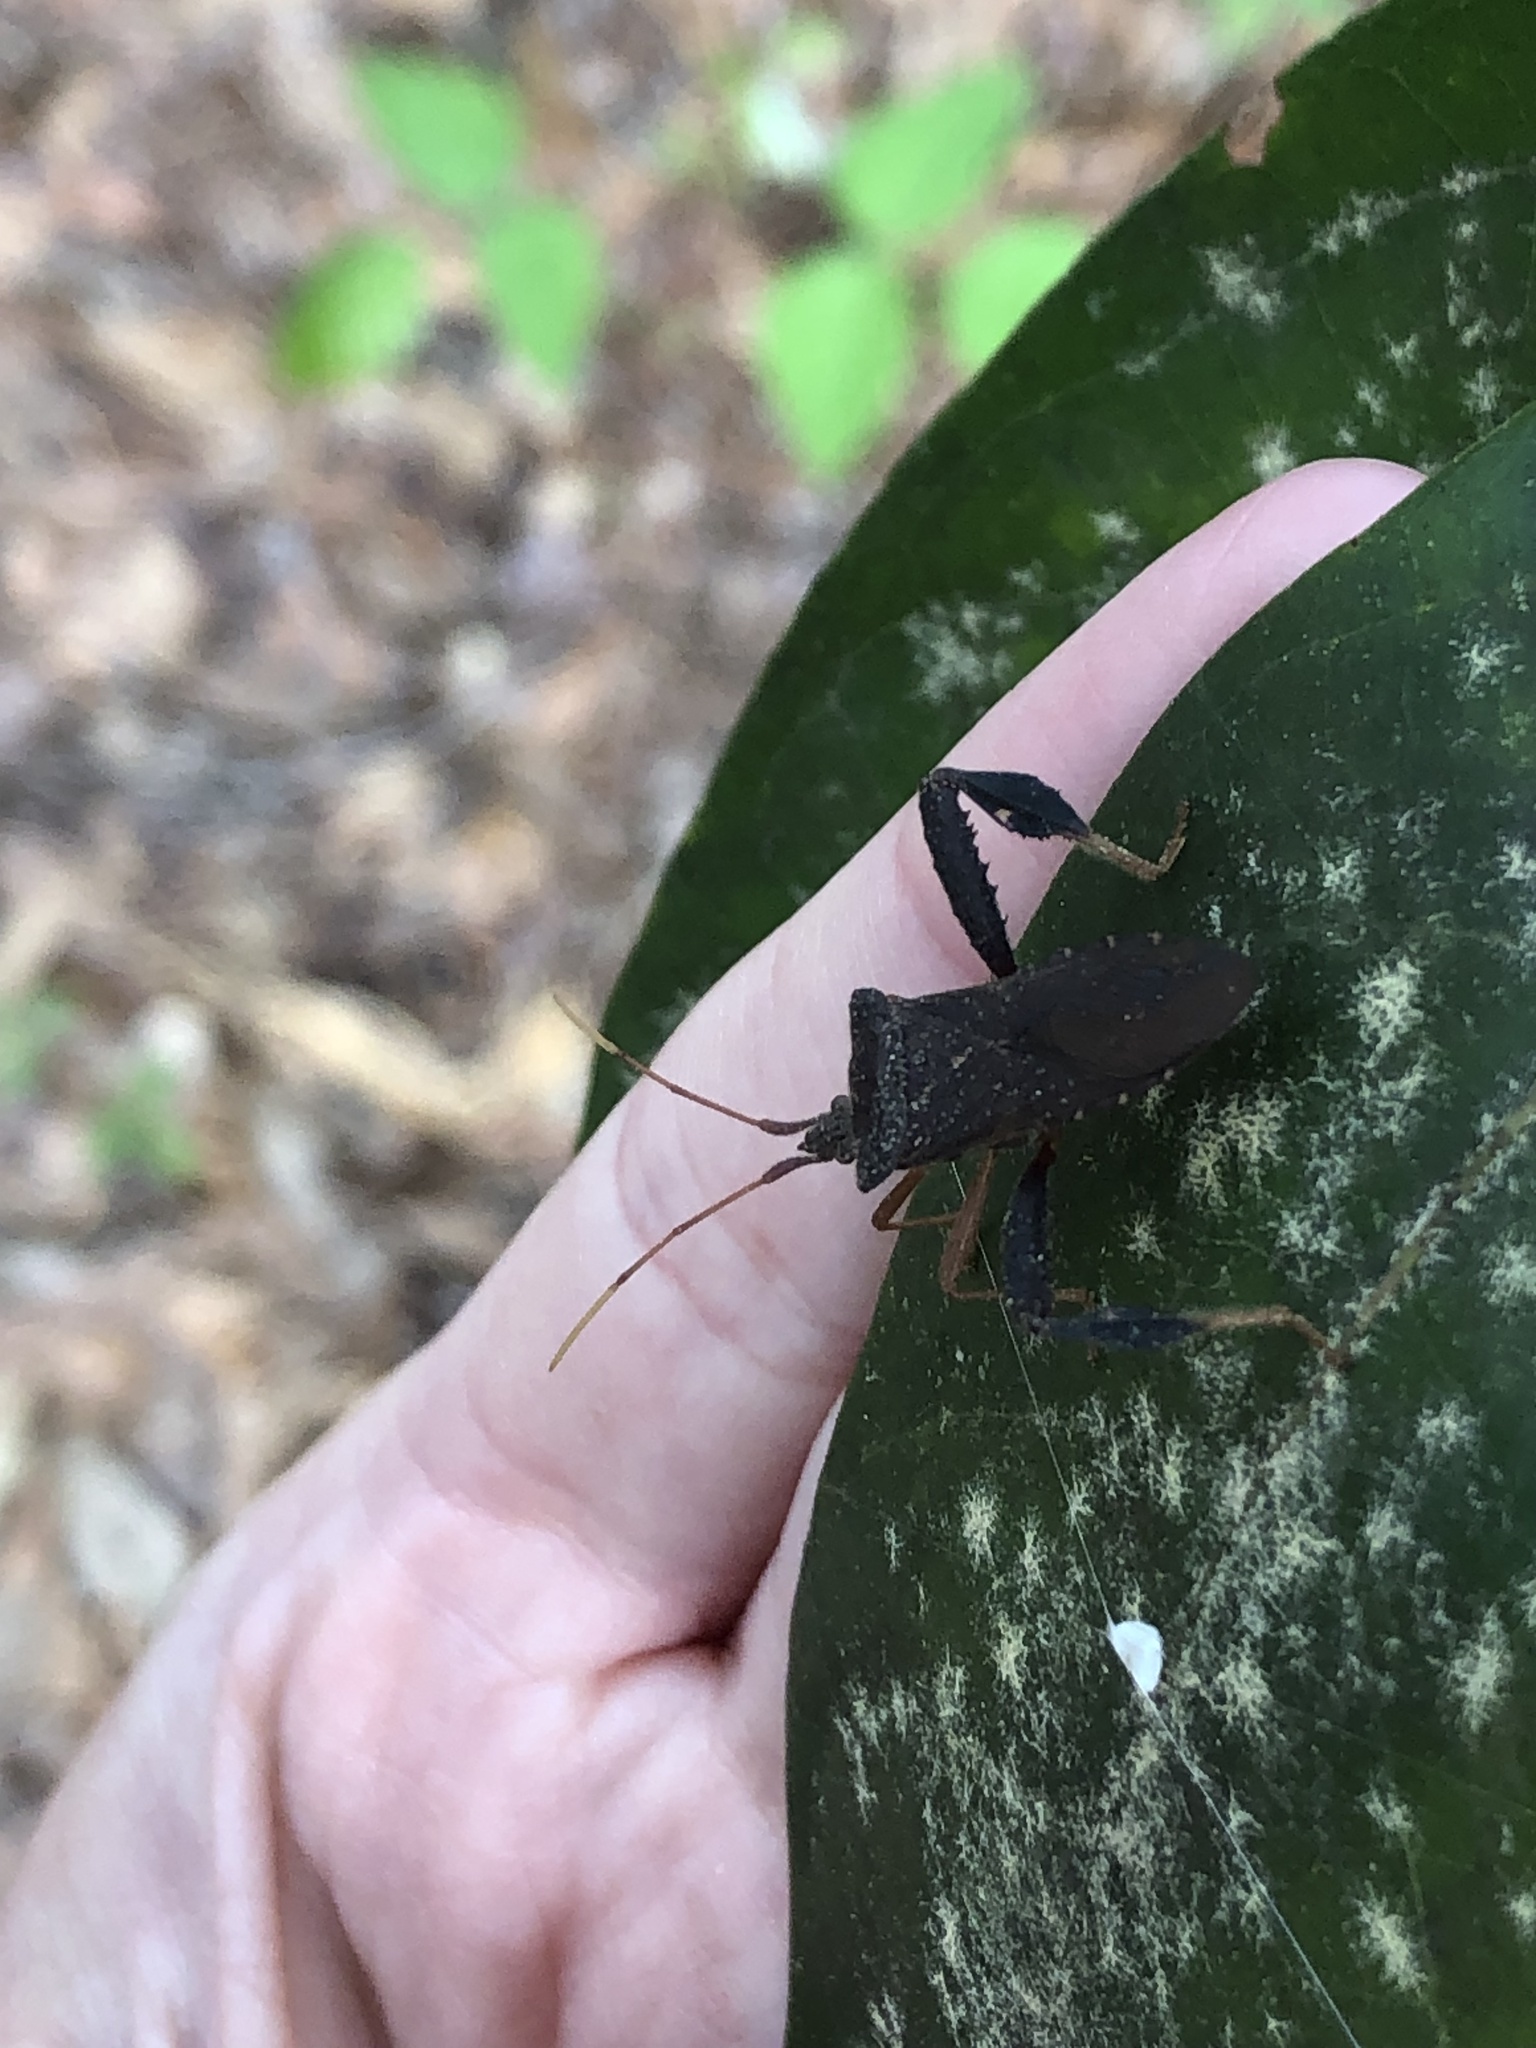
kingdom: Animalia
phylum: Arthropoda
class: Insecta
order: Hemiptera
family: Coreidae
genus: Leptoglossus
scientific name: Leptoglossus fulvicornis
